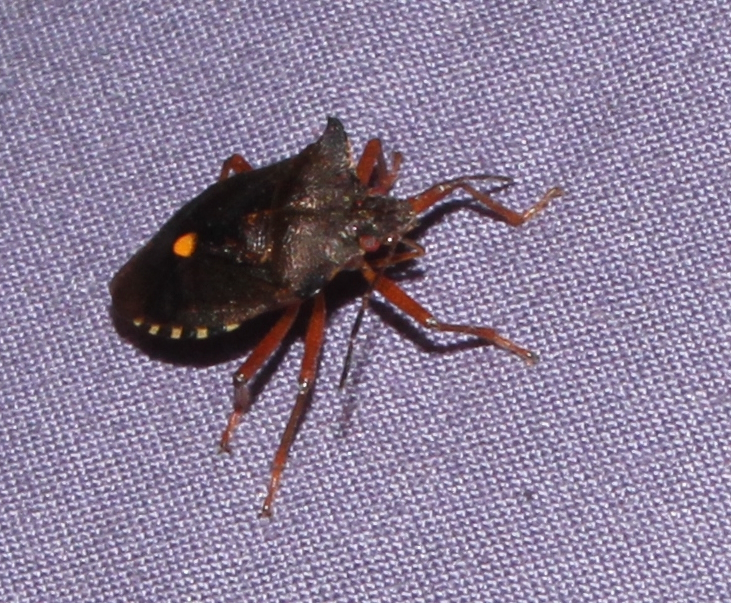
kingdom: Animalia
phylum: Arthropoda
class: Insecta
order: Hemiptera
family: Pentatomidae
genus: Pentatoma
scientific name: Pentatoma rufipes
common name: Forest bug
